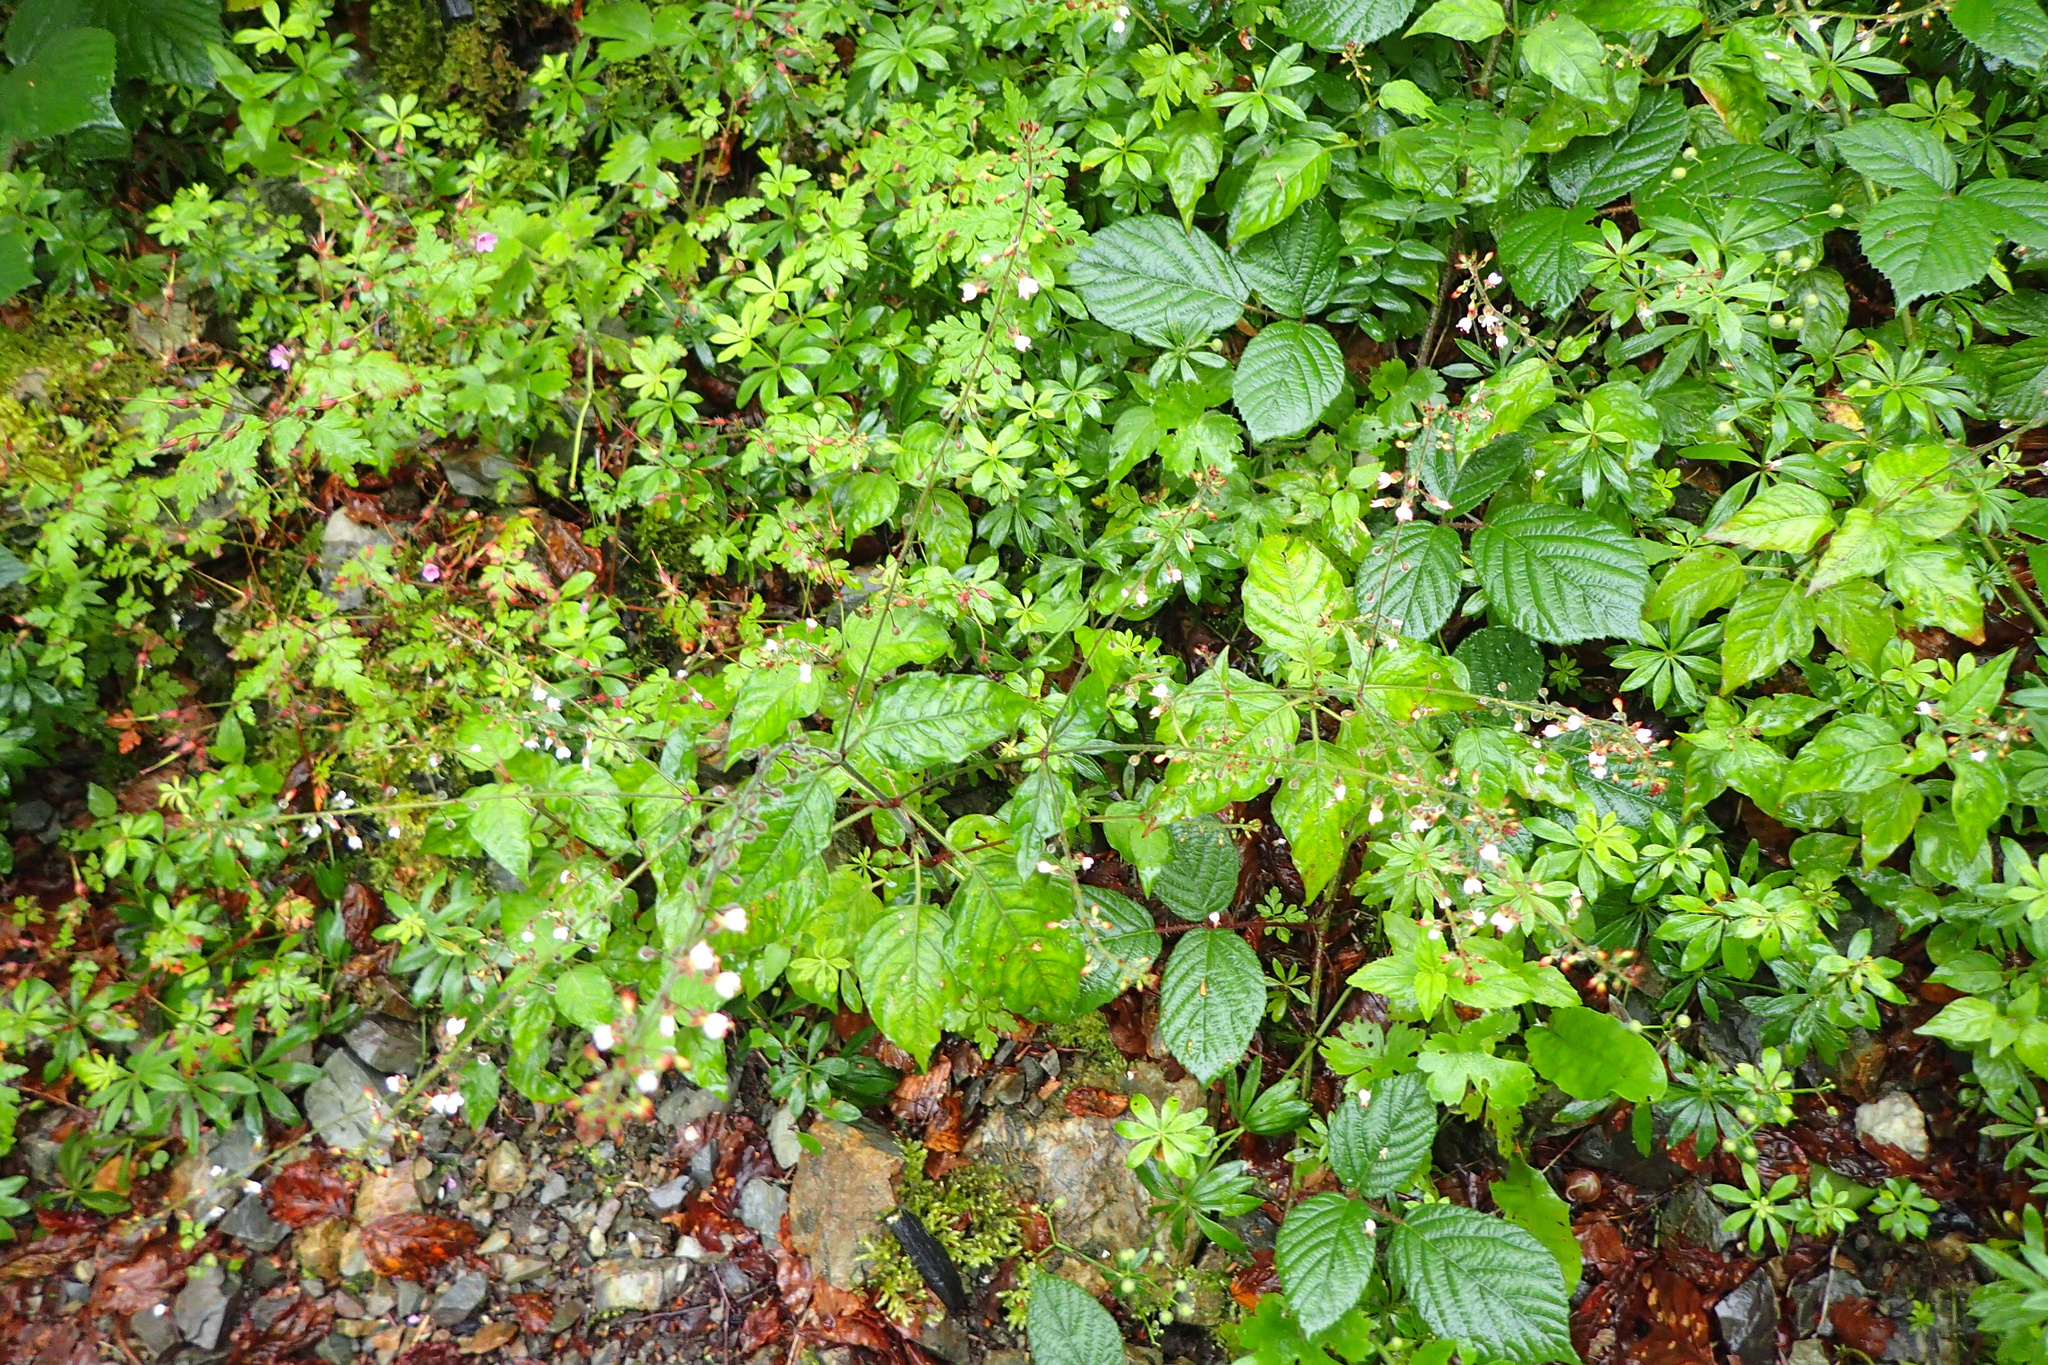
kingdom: Plantae
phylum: Tracheophyta
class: Magnoliopsida
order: Myrtales
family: Onagraceae
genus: Circaea
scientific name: Circaea lutetiana
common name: Enchanter's-nightshade
